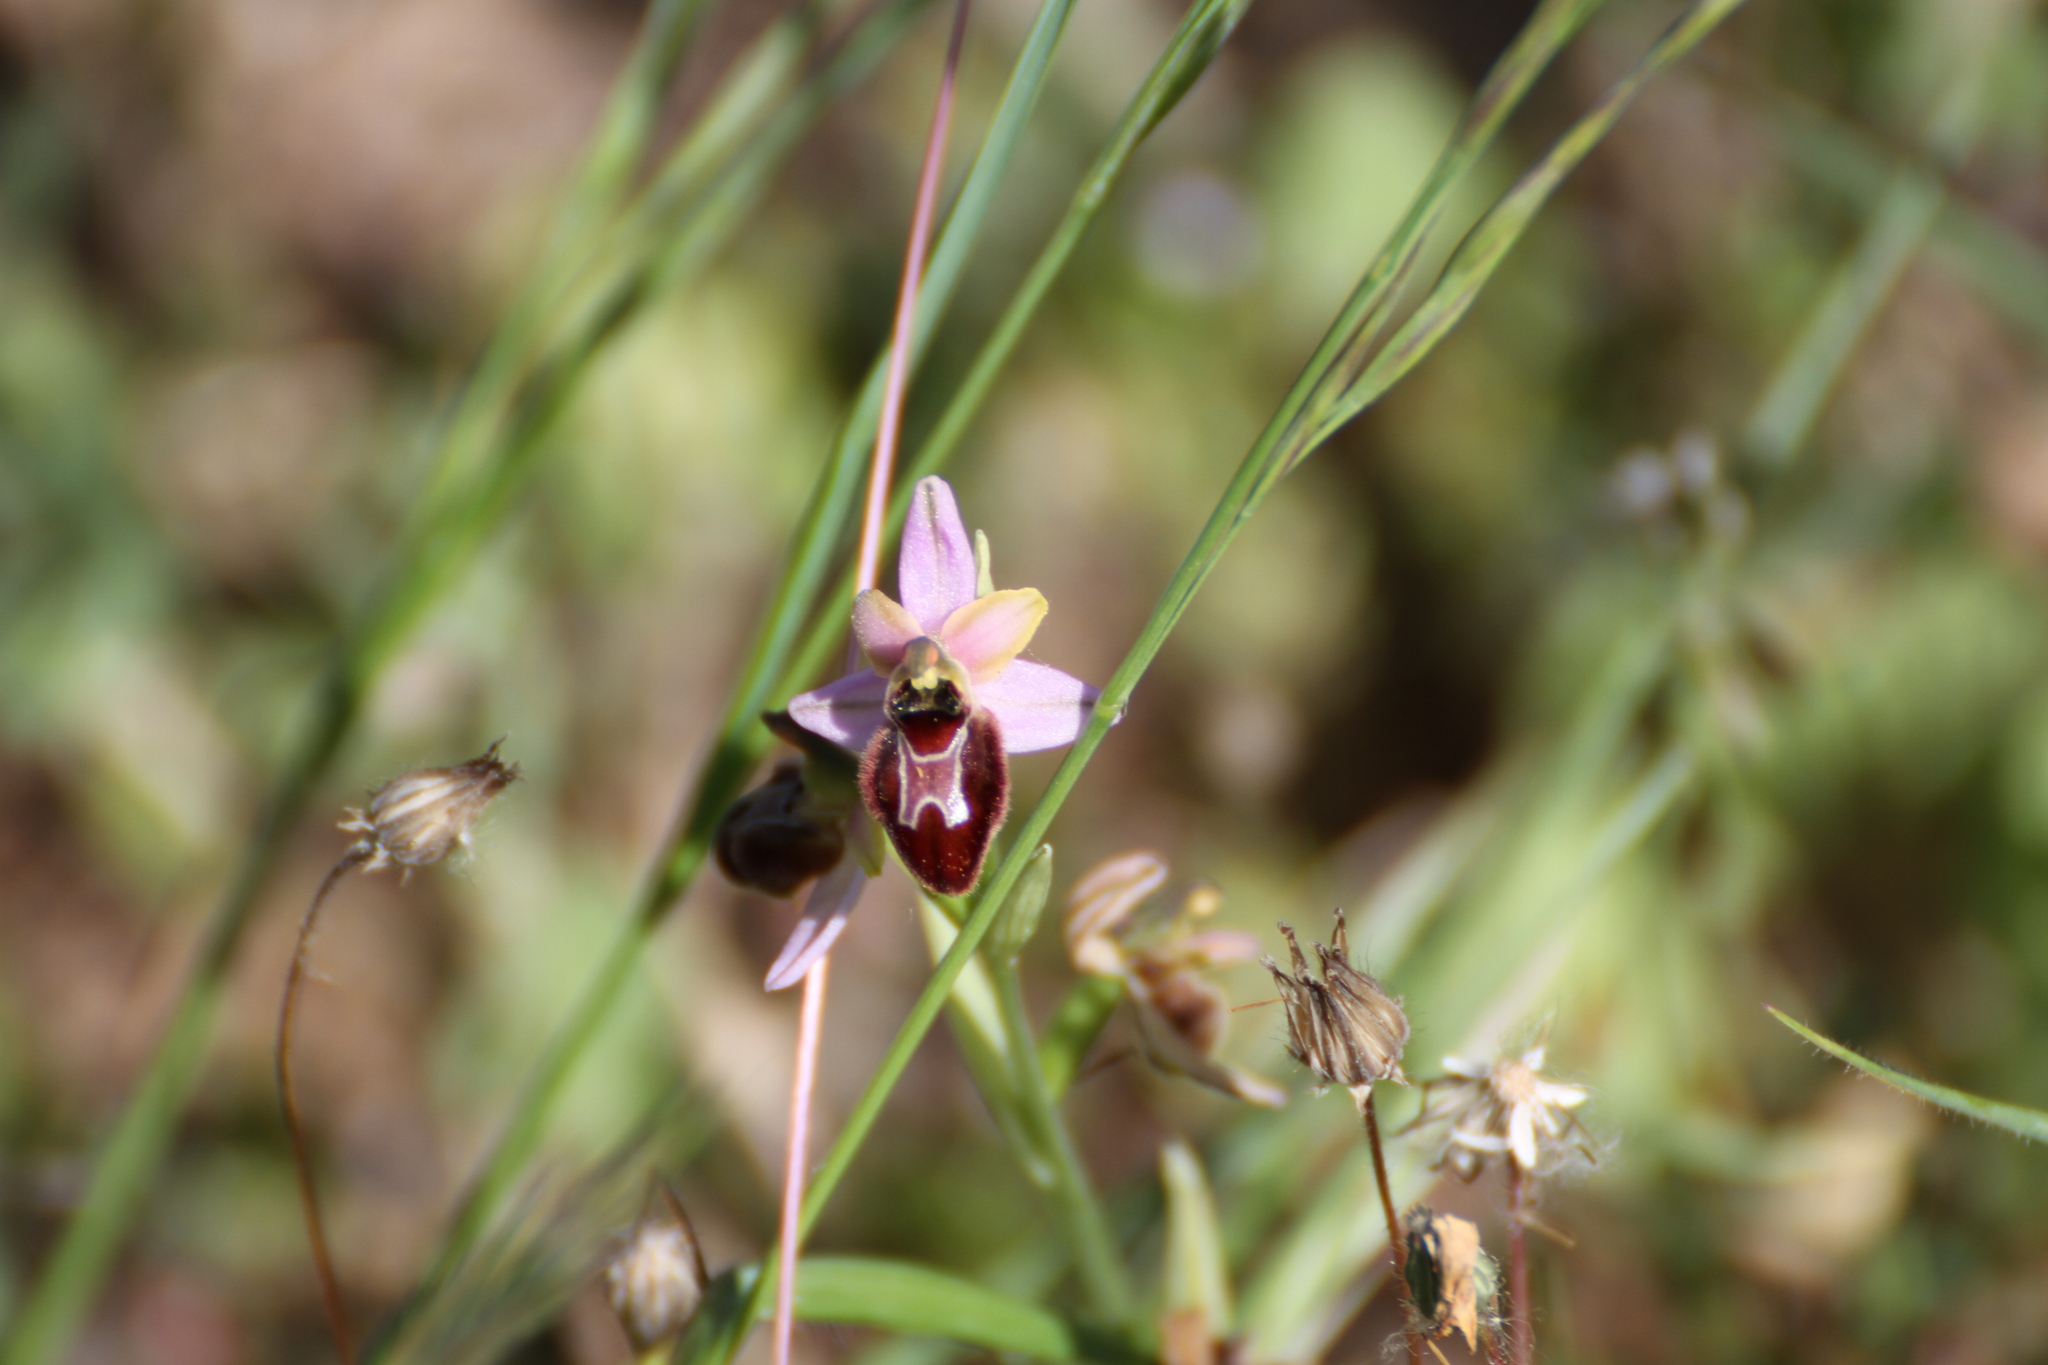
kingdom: Plantae
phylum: Tracheophyta
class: Liliopsida
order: Asparagales
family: Orchidaceae
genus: Ophrys
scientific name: Ophrys arachnitiformis
